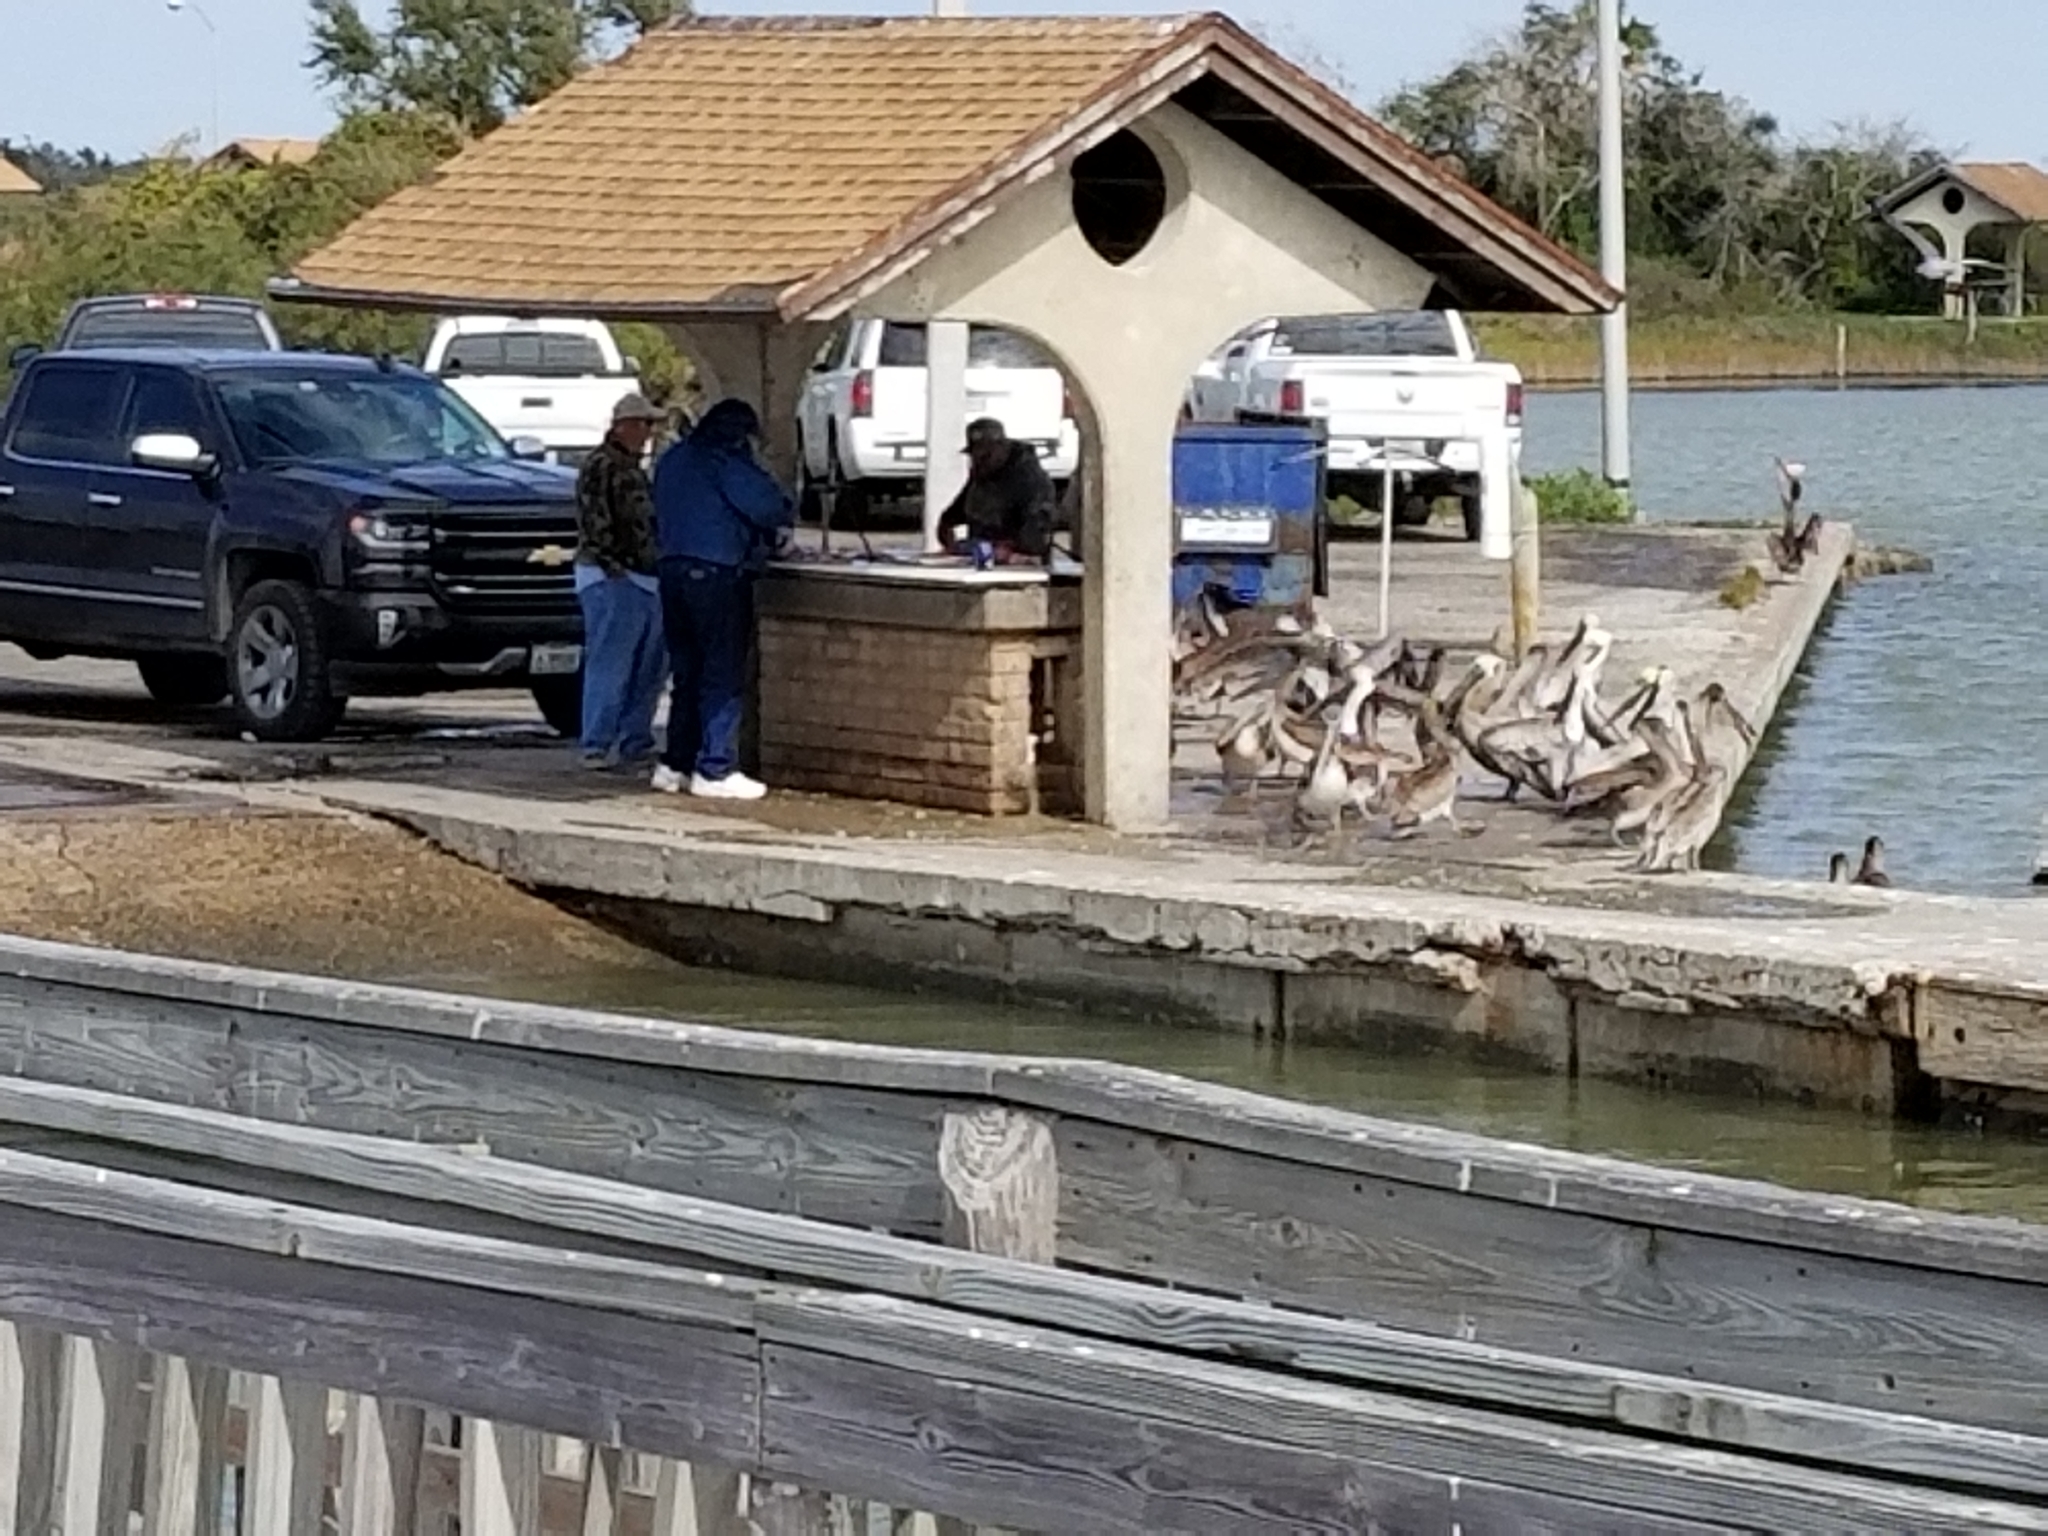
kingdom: Animalia
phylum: Chordata
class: Aves
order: Pelecaniformes
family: Pelecanidae
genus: Pelecanus
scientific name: Pelecanus occidentalis
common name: Brown pelican
